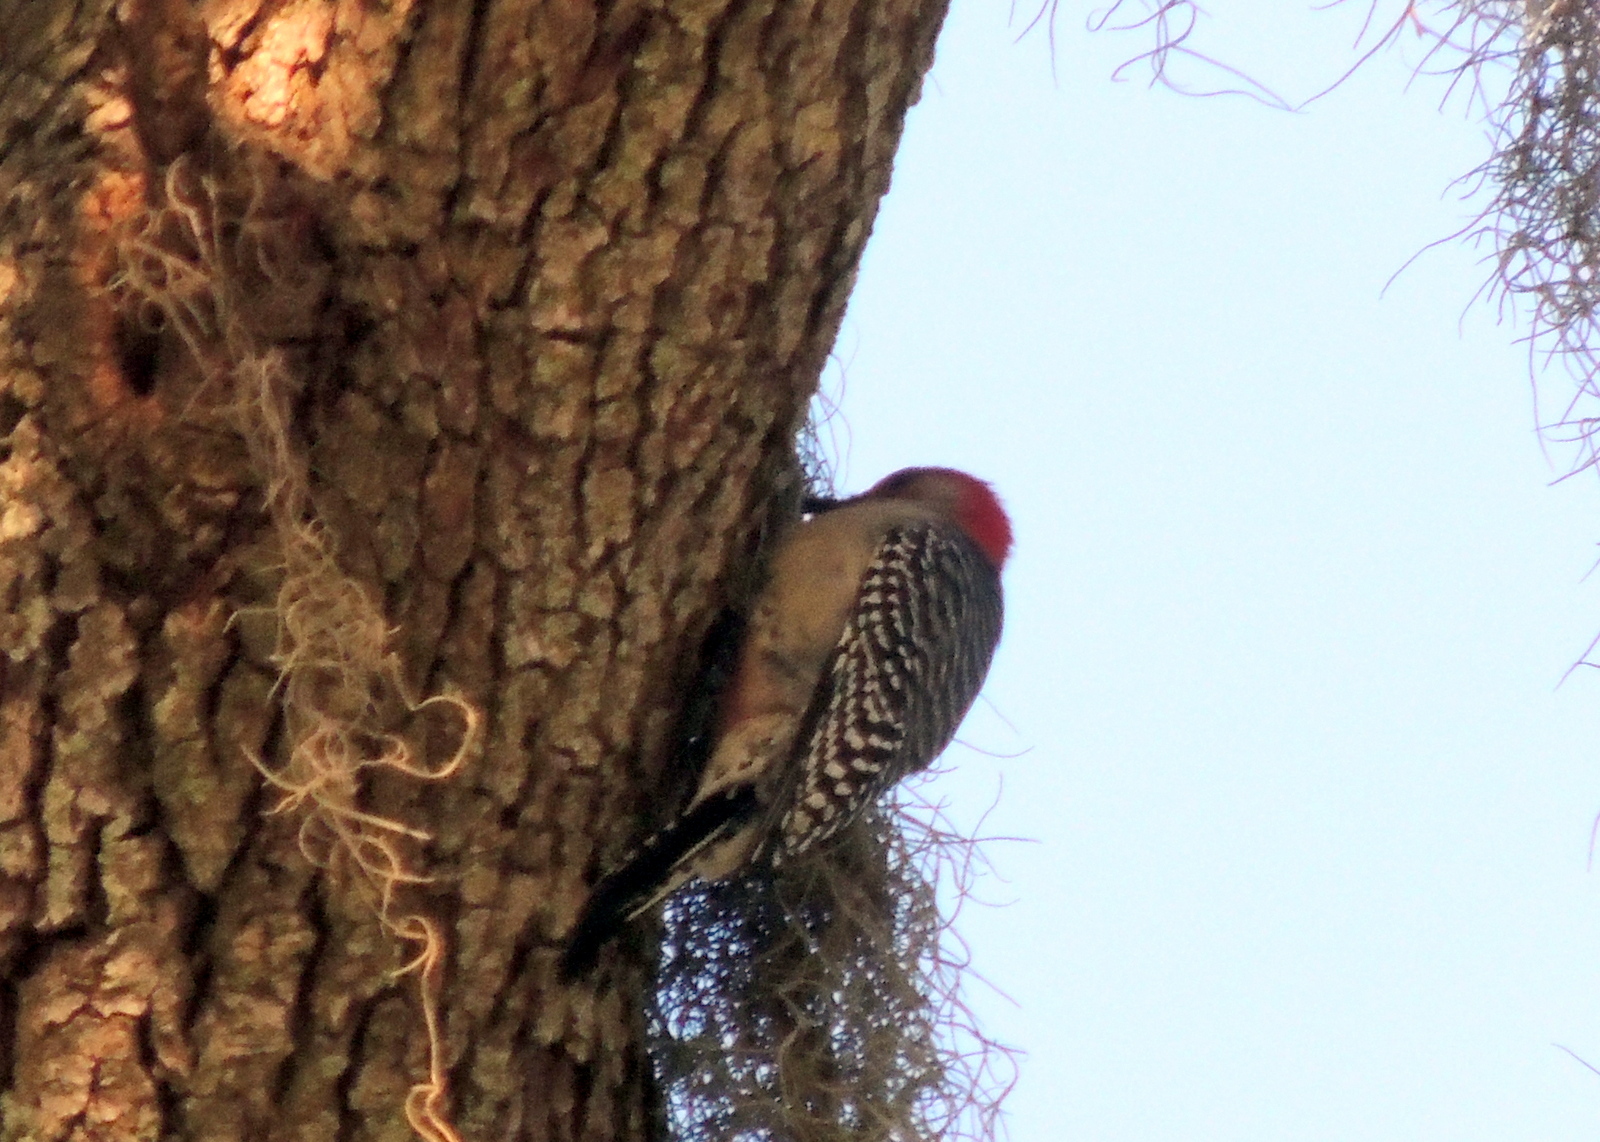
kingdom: Animalia
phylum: Chordata
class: Aves
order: Piciformes
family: Picidae
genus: Melanerpes
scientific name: Melanerpes carolinus
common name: Red-bellied woodpecker
